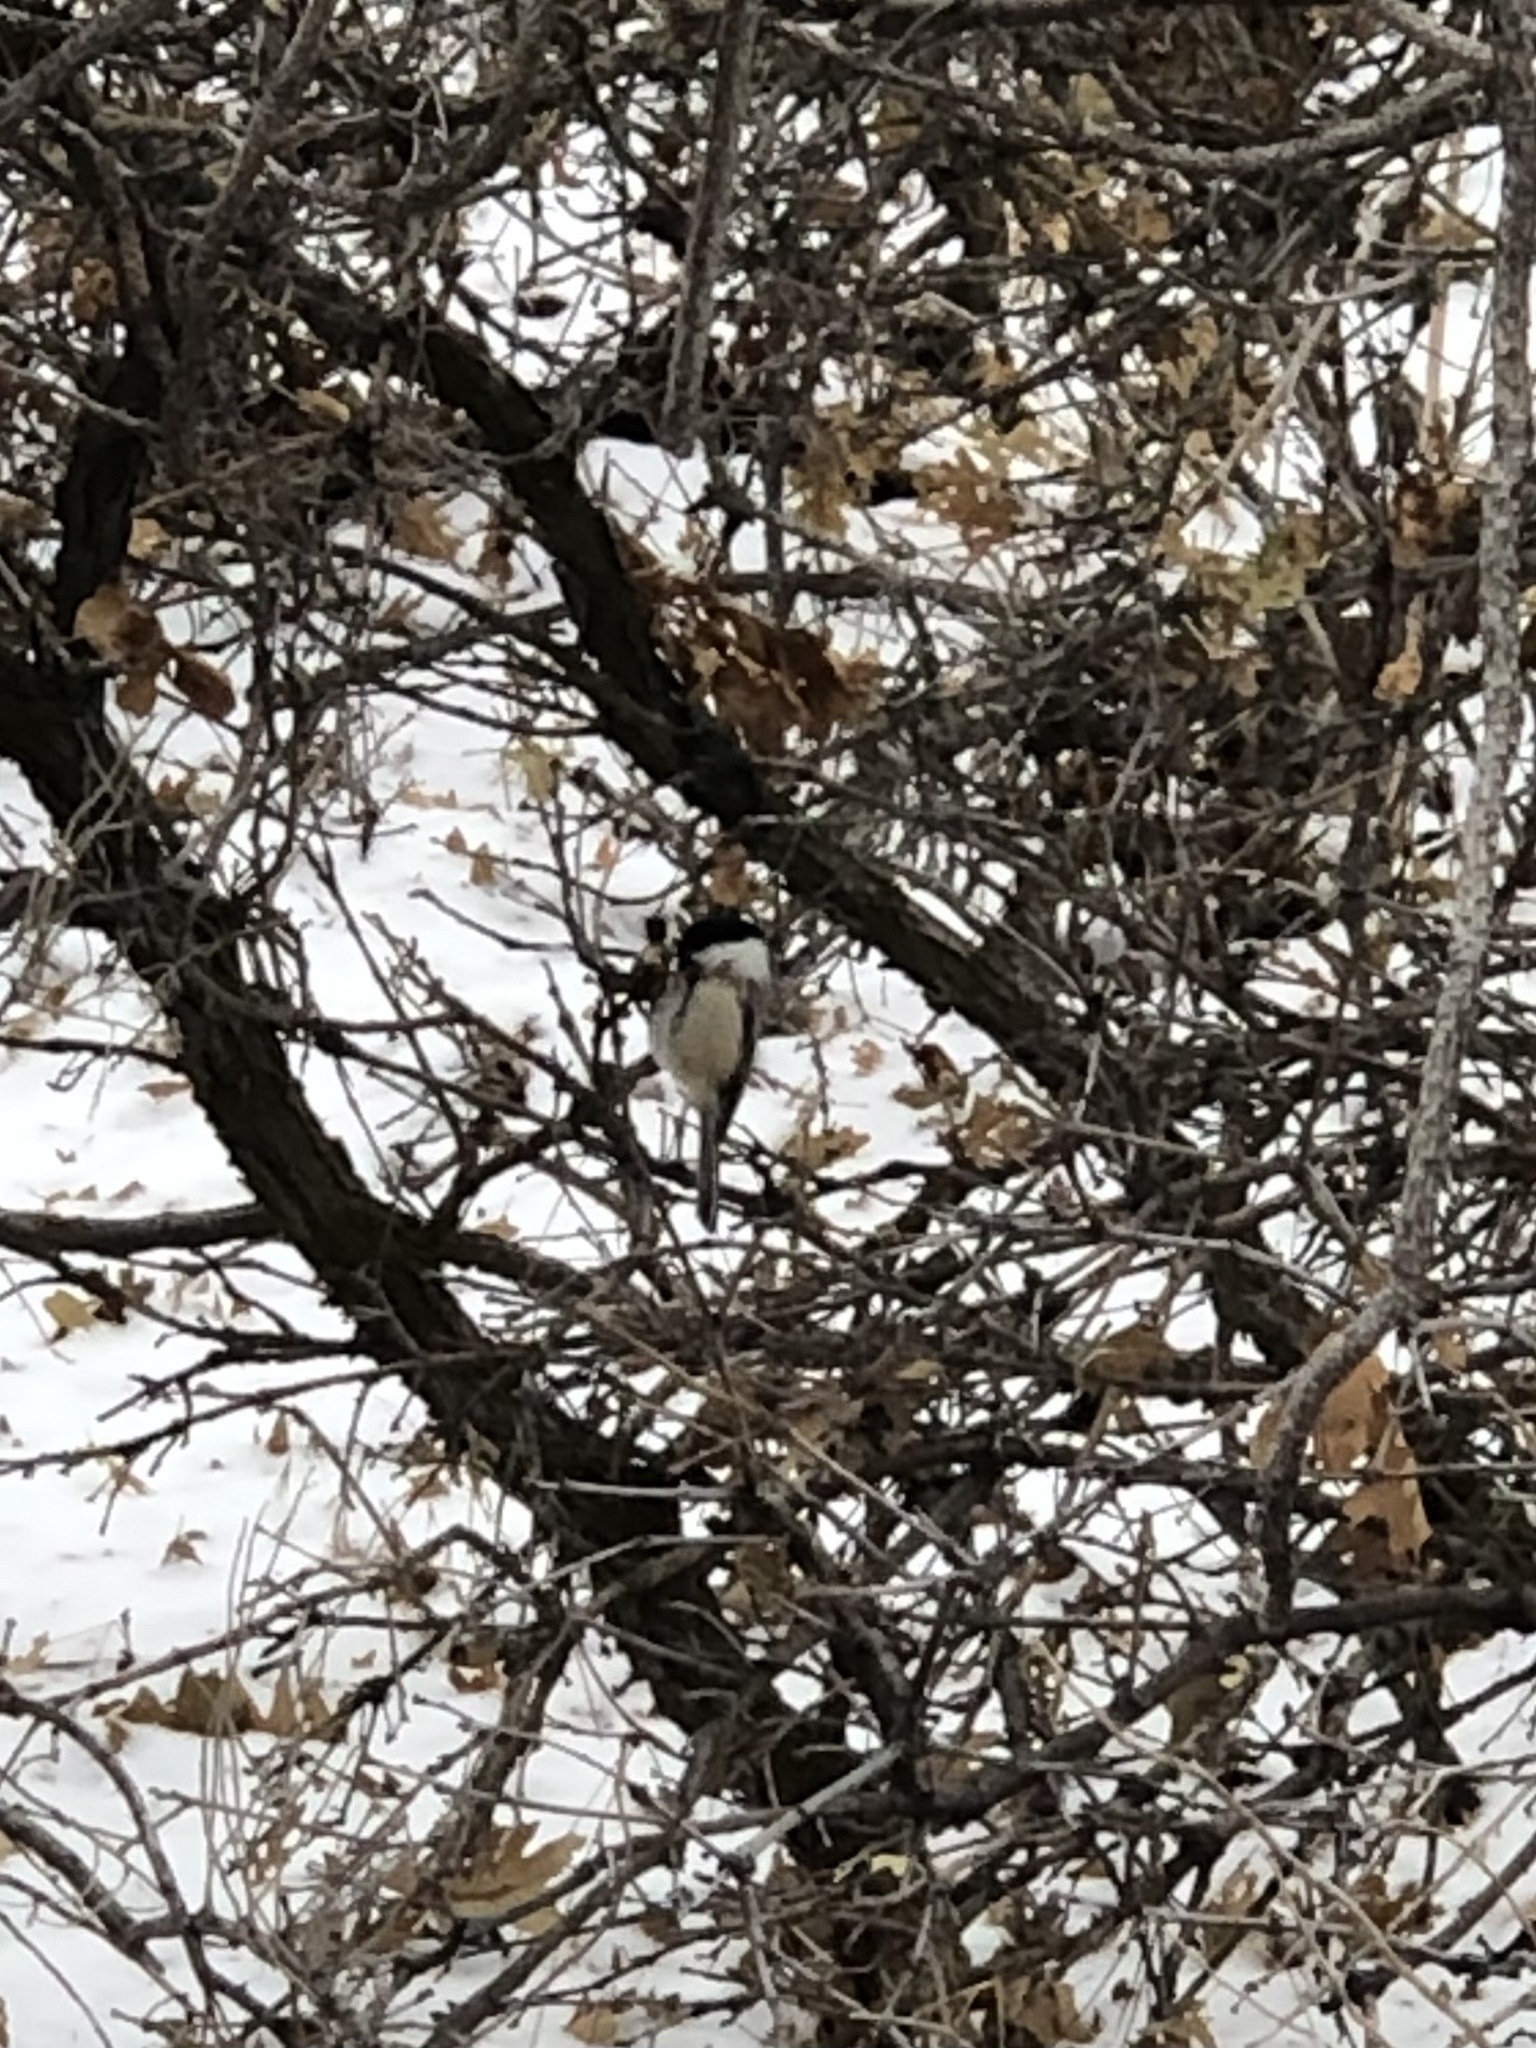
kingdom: Animalia
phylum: Chordata
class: Aves
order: Passeriformes
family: Paridae
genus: Poecile
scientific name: Poecile atricapillus
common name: Black-capped chickadee
